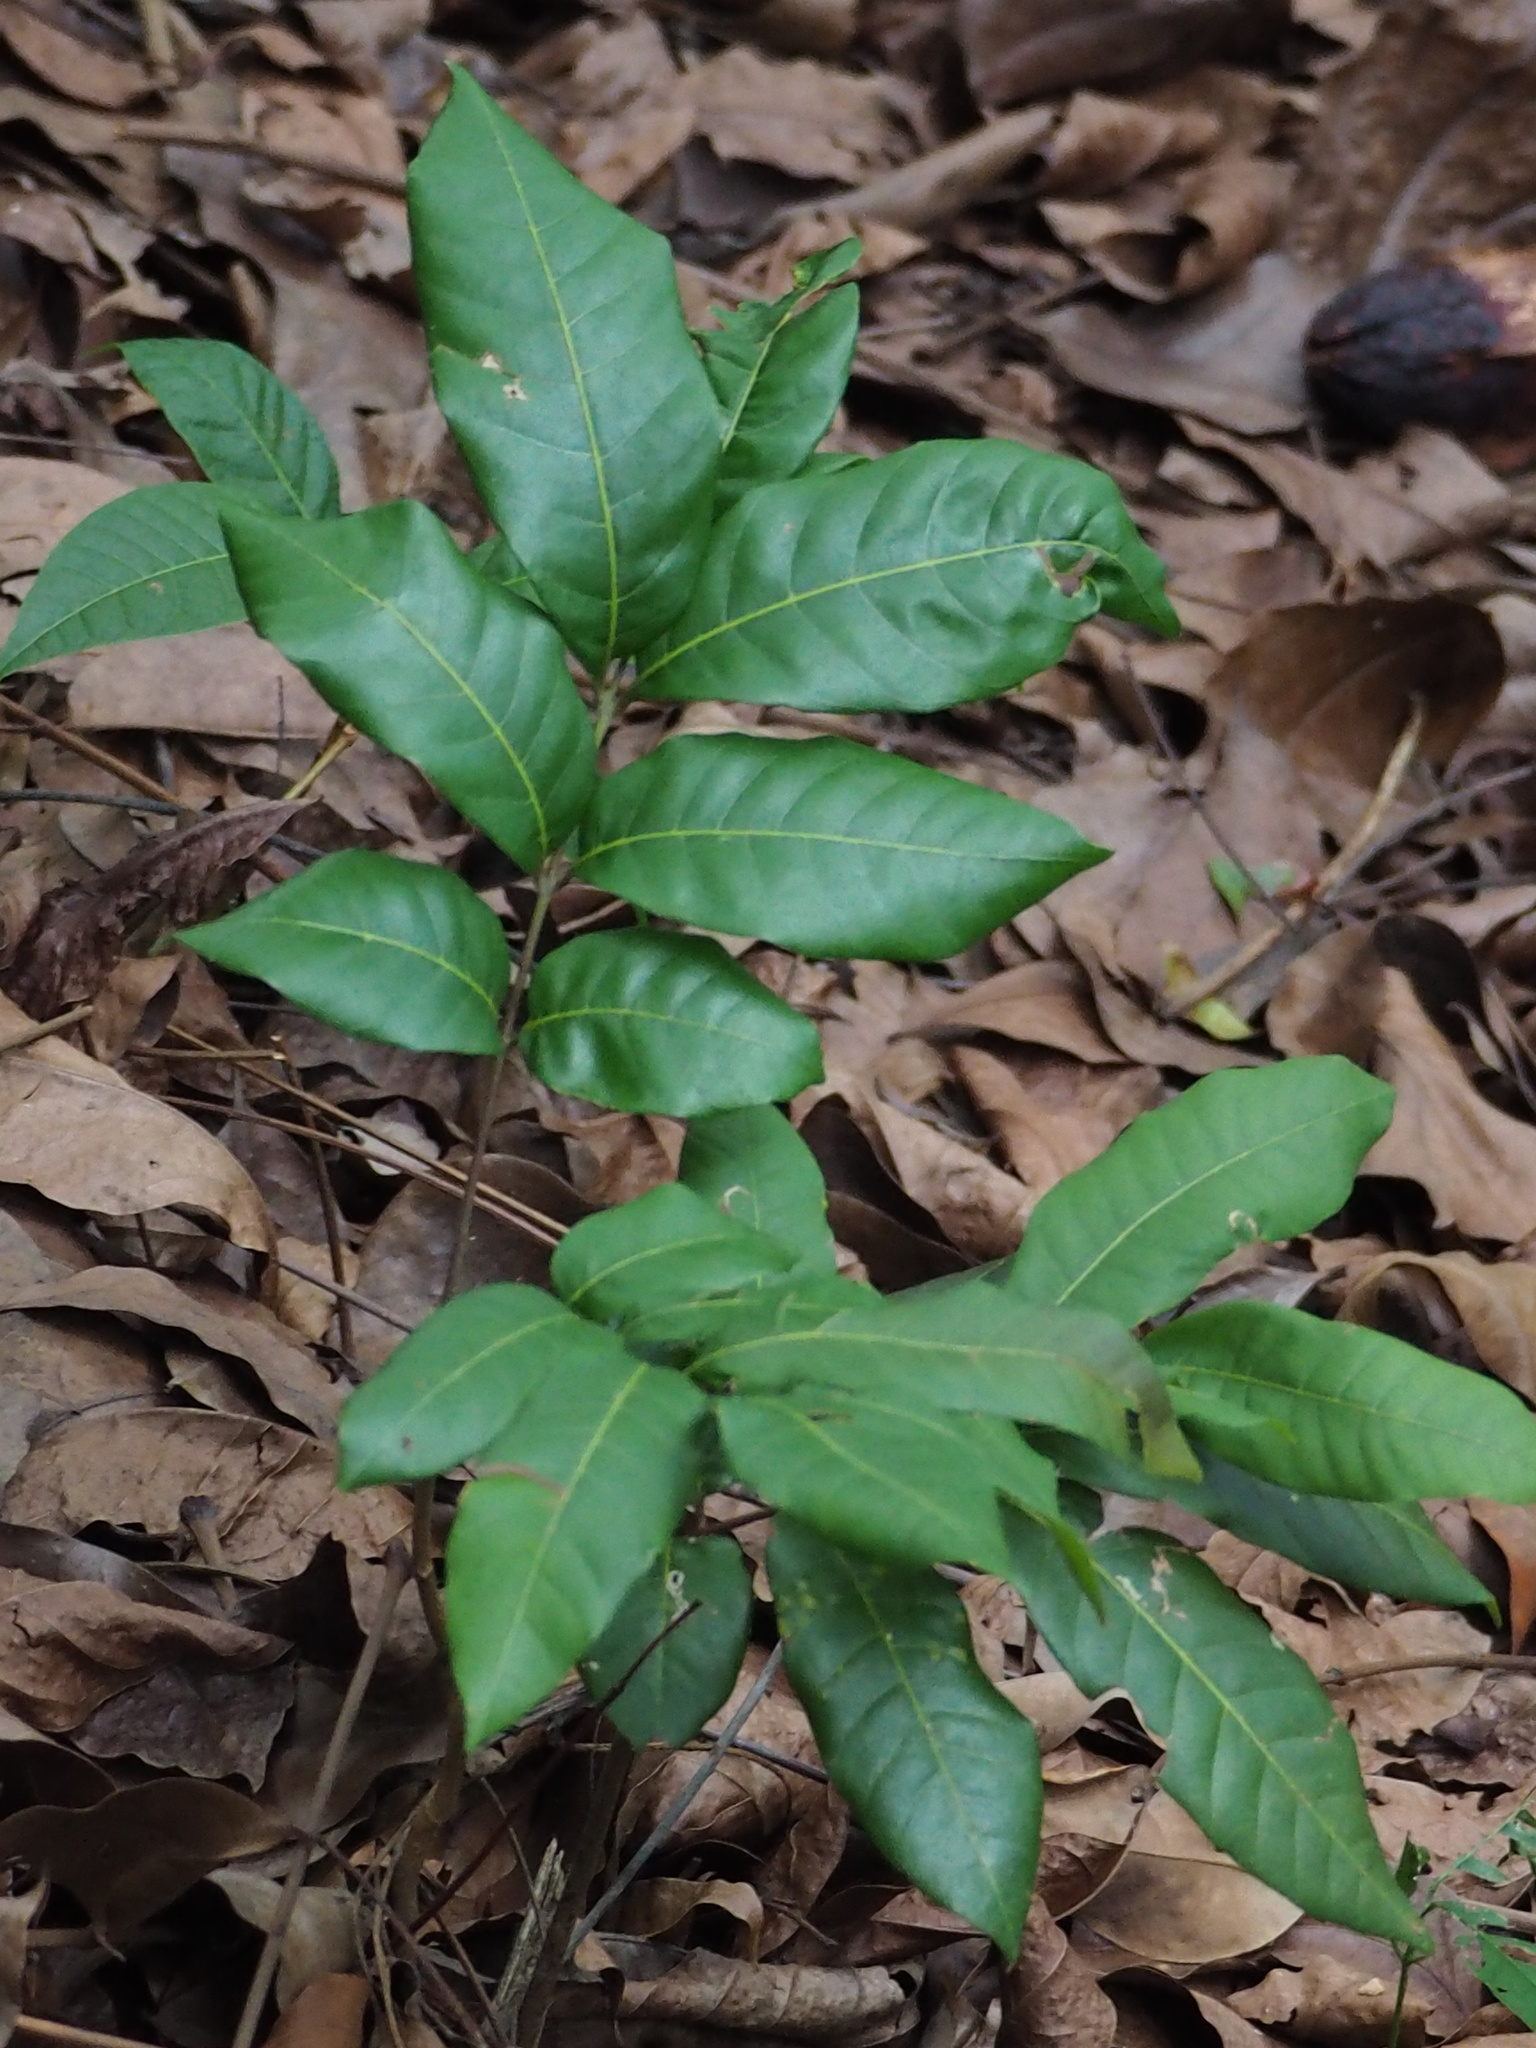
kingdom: Plantae
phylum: Tracheophyta
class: Magnoliopsida
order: Sapindales
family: Sapindaceae
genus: Dimocarpus
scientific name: Dimocarpus longan
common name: Longan
